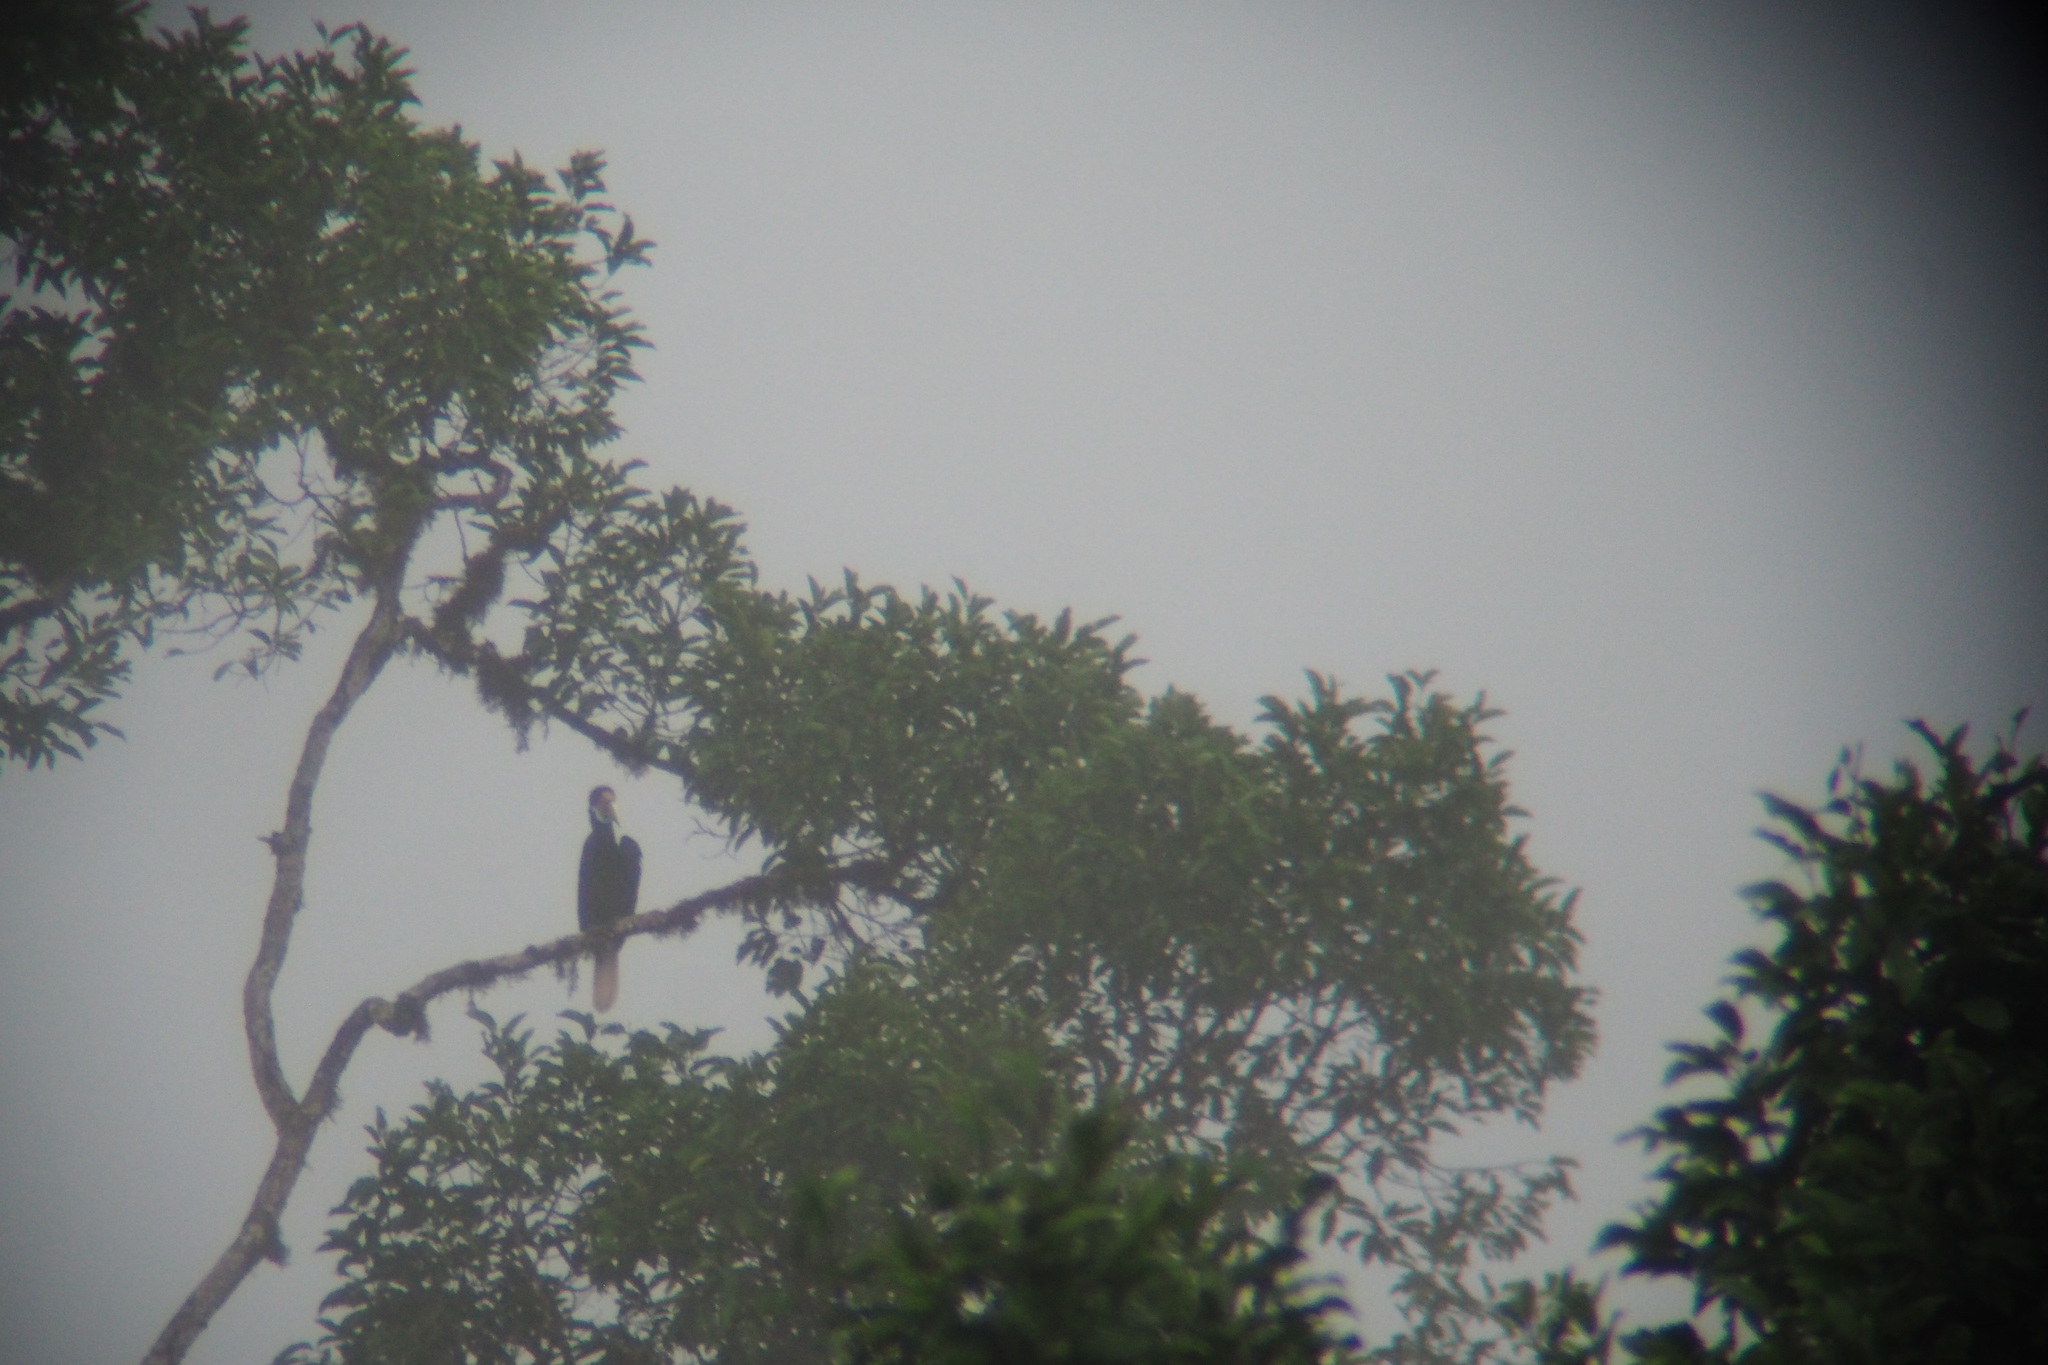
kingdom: Animalia
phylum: Chordata
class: Aves
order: Bucerotiformes
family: Bucerotidae
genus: Rhyticeros
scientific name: Rhyticeros undulatus
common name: Wreathed hornbill
